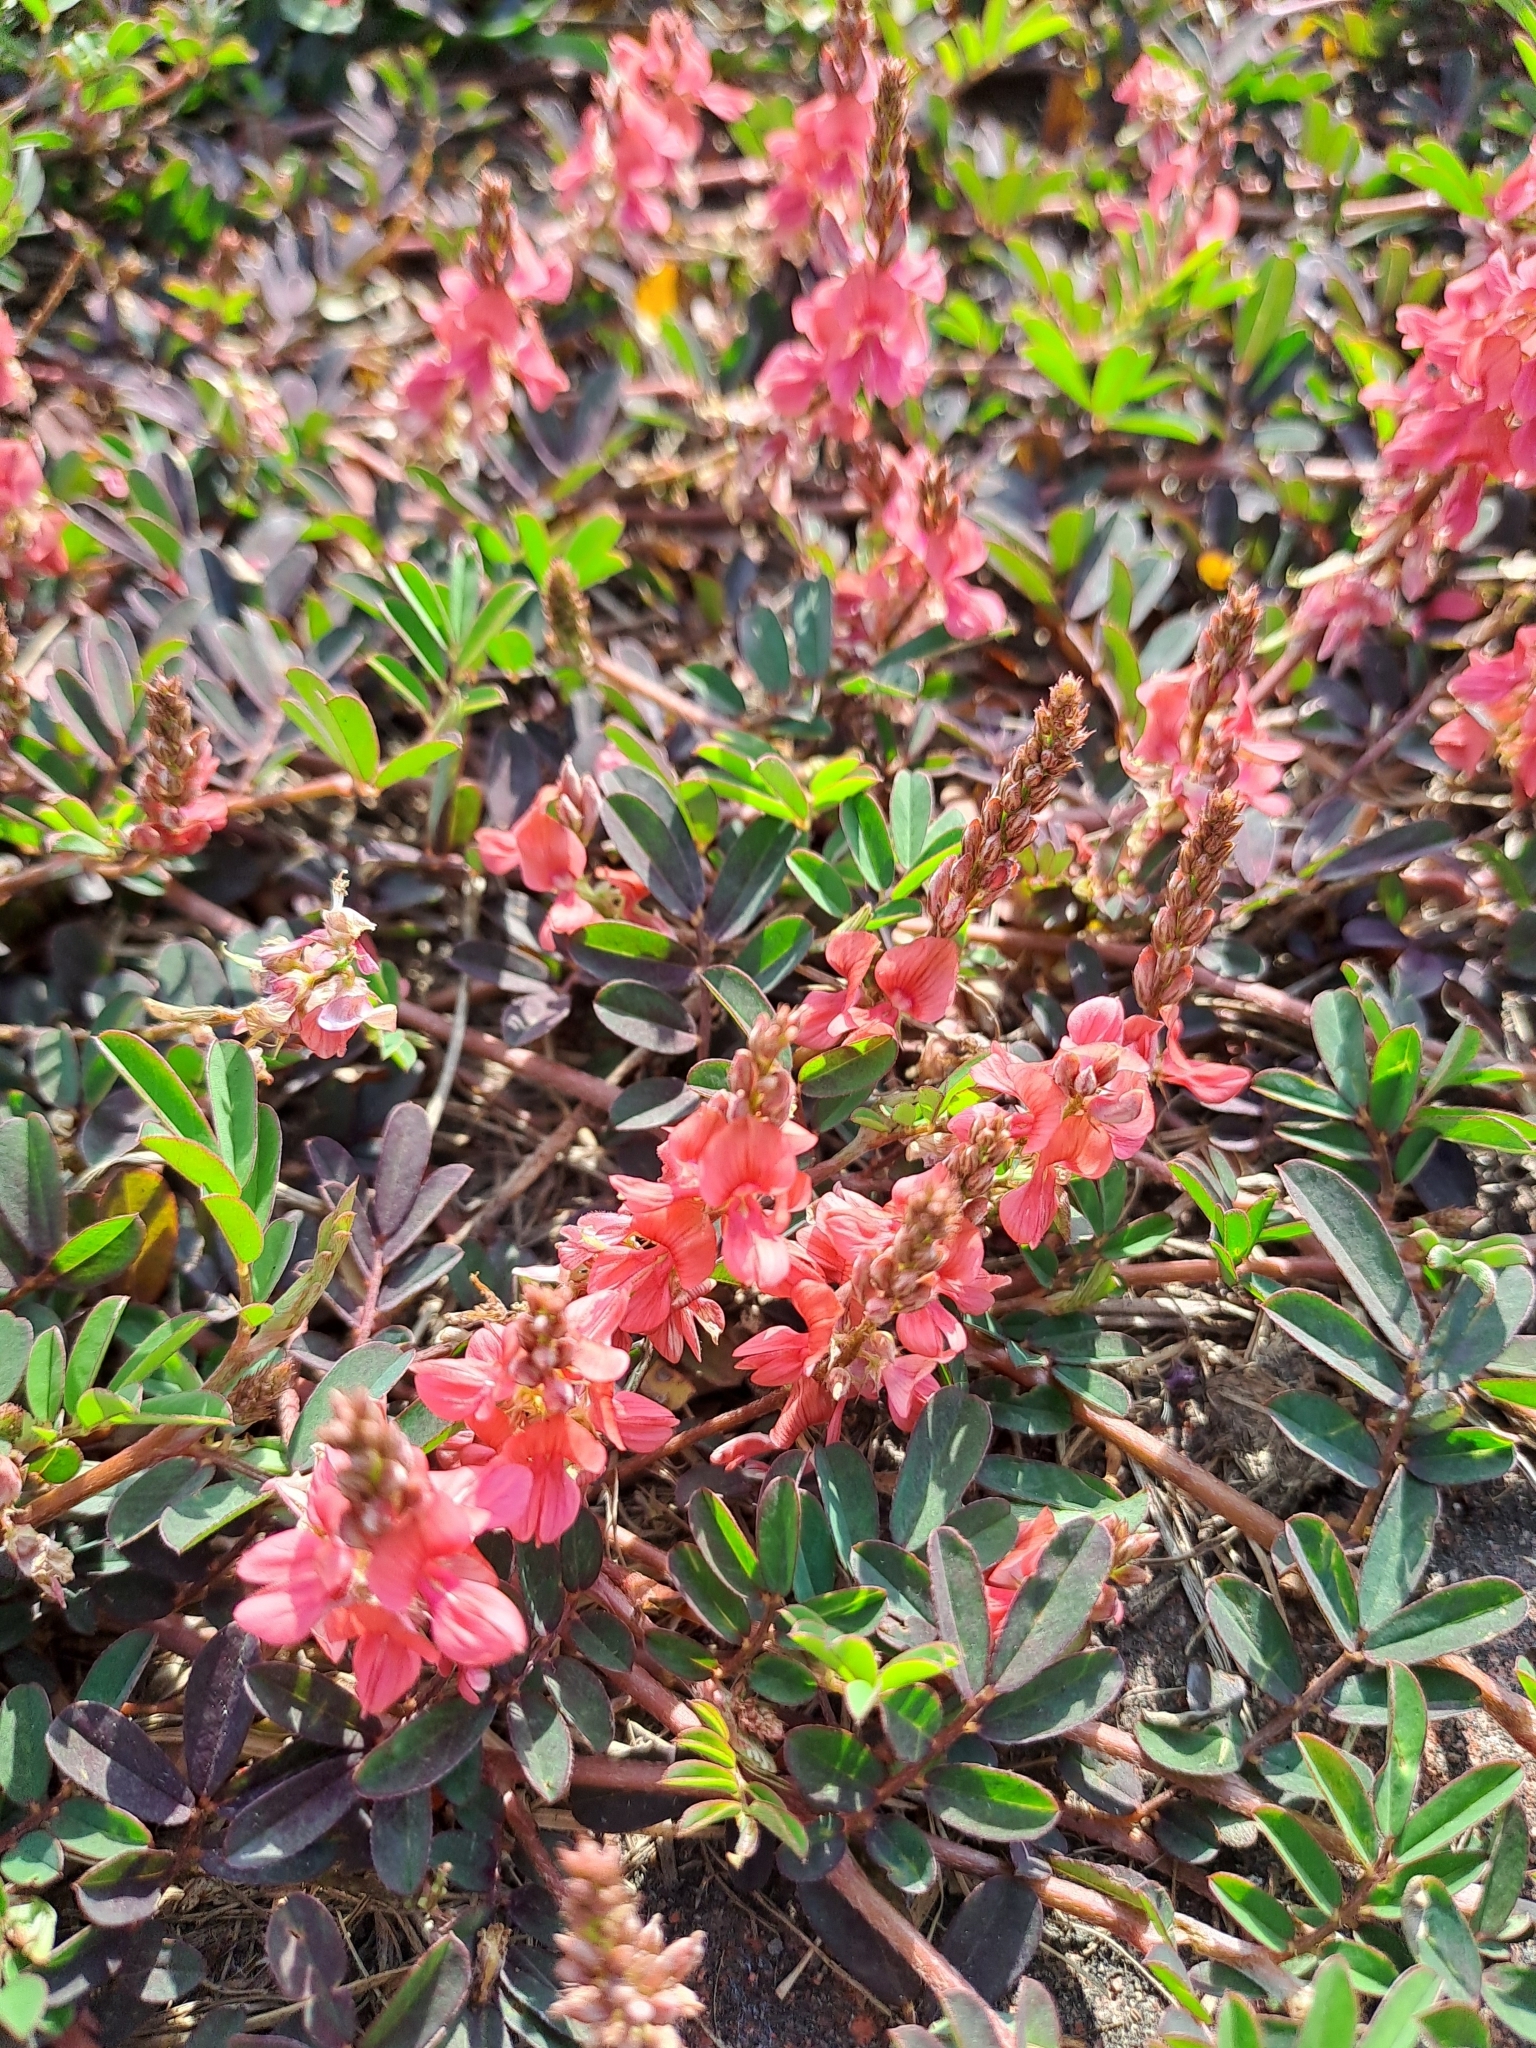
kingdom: Plantae
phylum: Tracheophyta
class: Magnoliopsida
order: Fabales
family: Fabaceae
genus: Indigofera
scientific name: Indigofera hendecaphylla
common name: Trailing indigo
